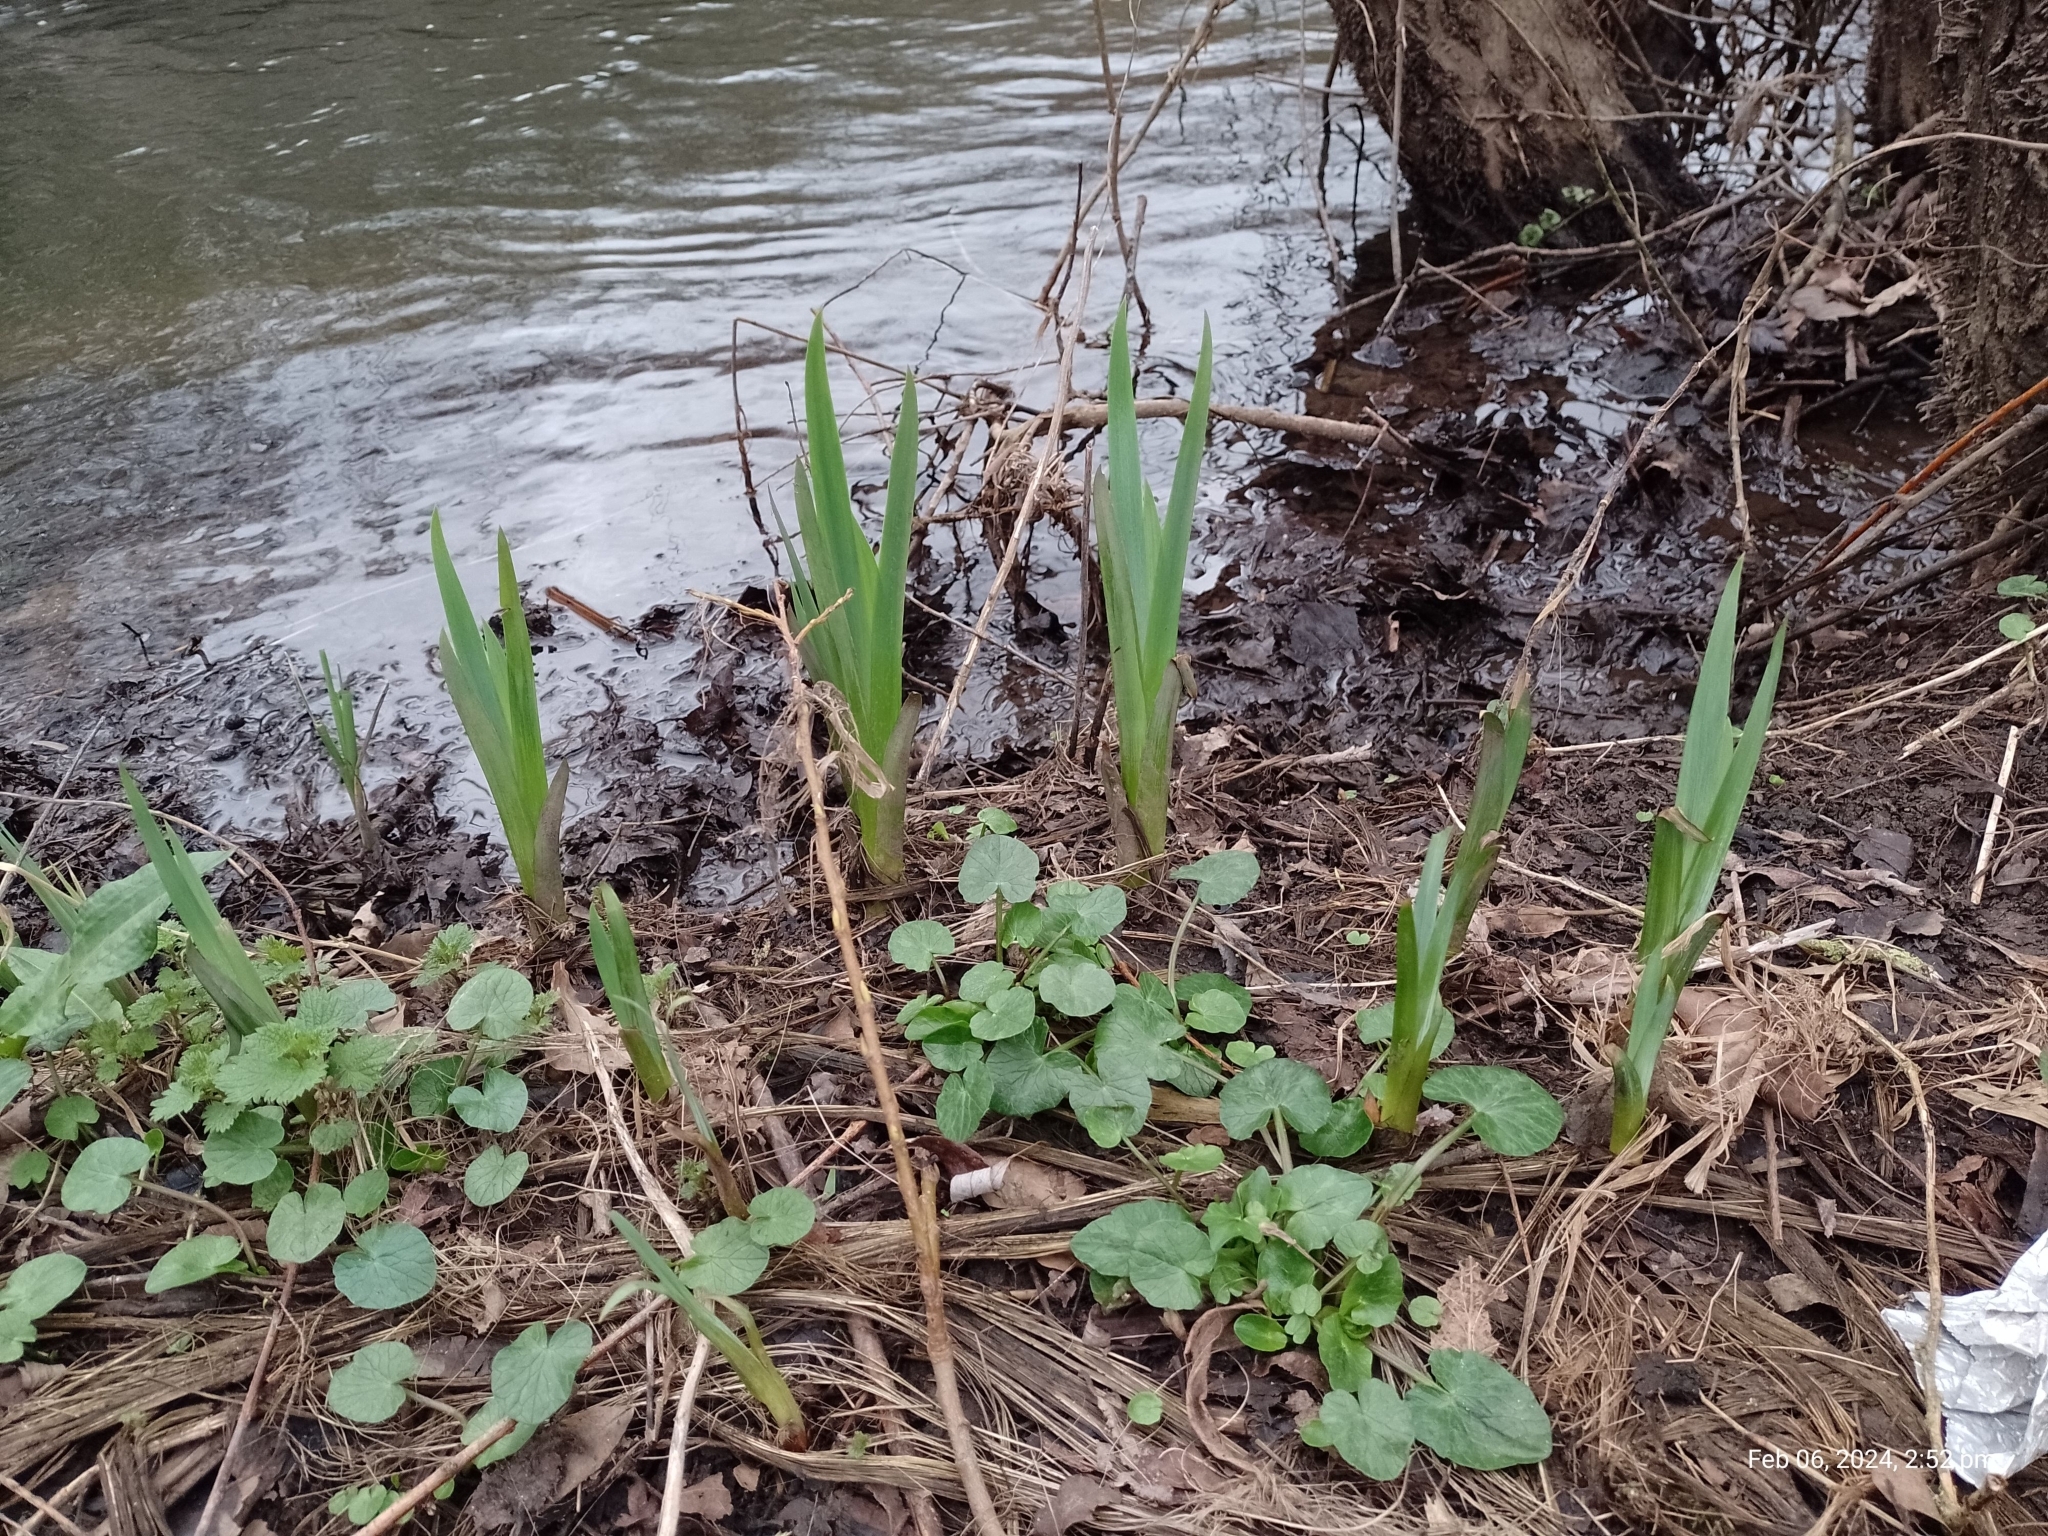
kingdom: Plantae
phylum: Tracheophyta
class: Liliopsida
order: Asparagales
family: Iridaceae
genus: Iris
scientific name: Iris pseudacorus
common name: Yellow flag
